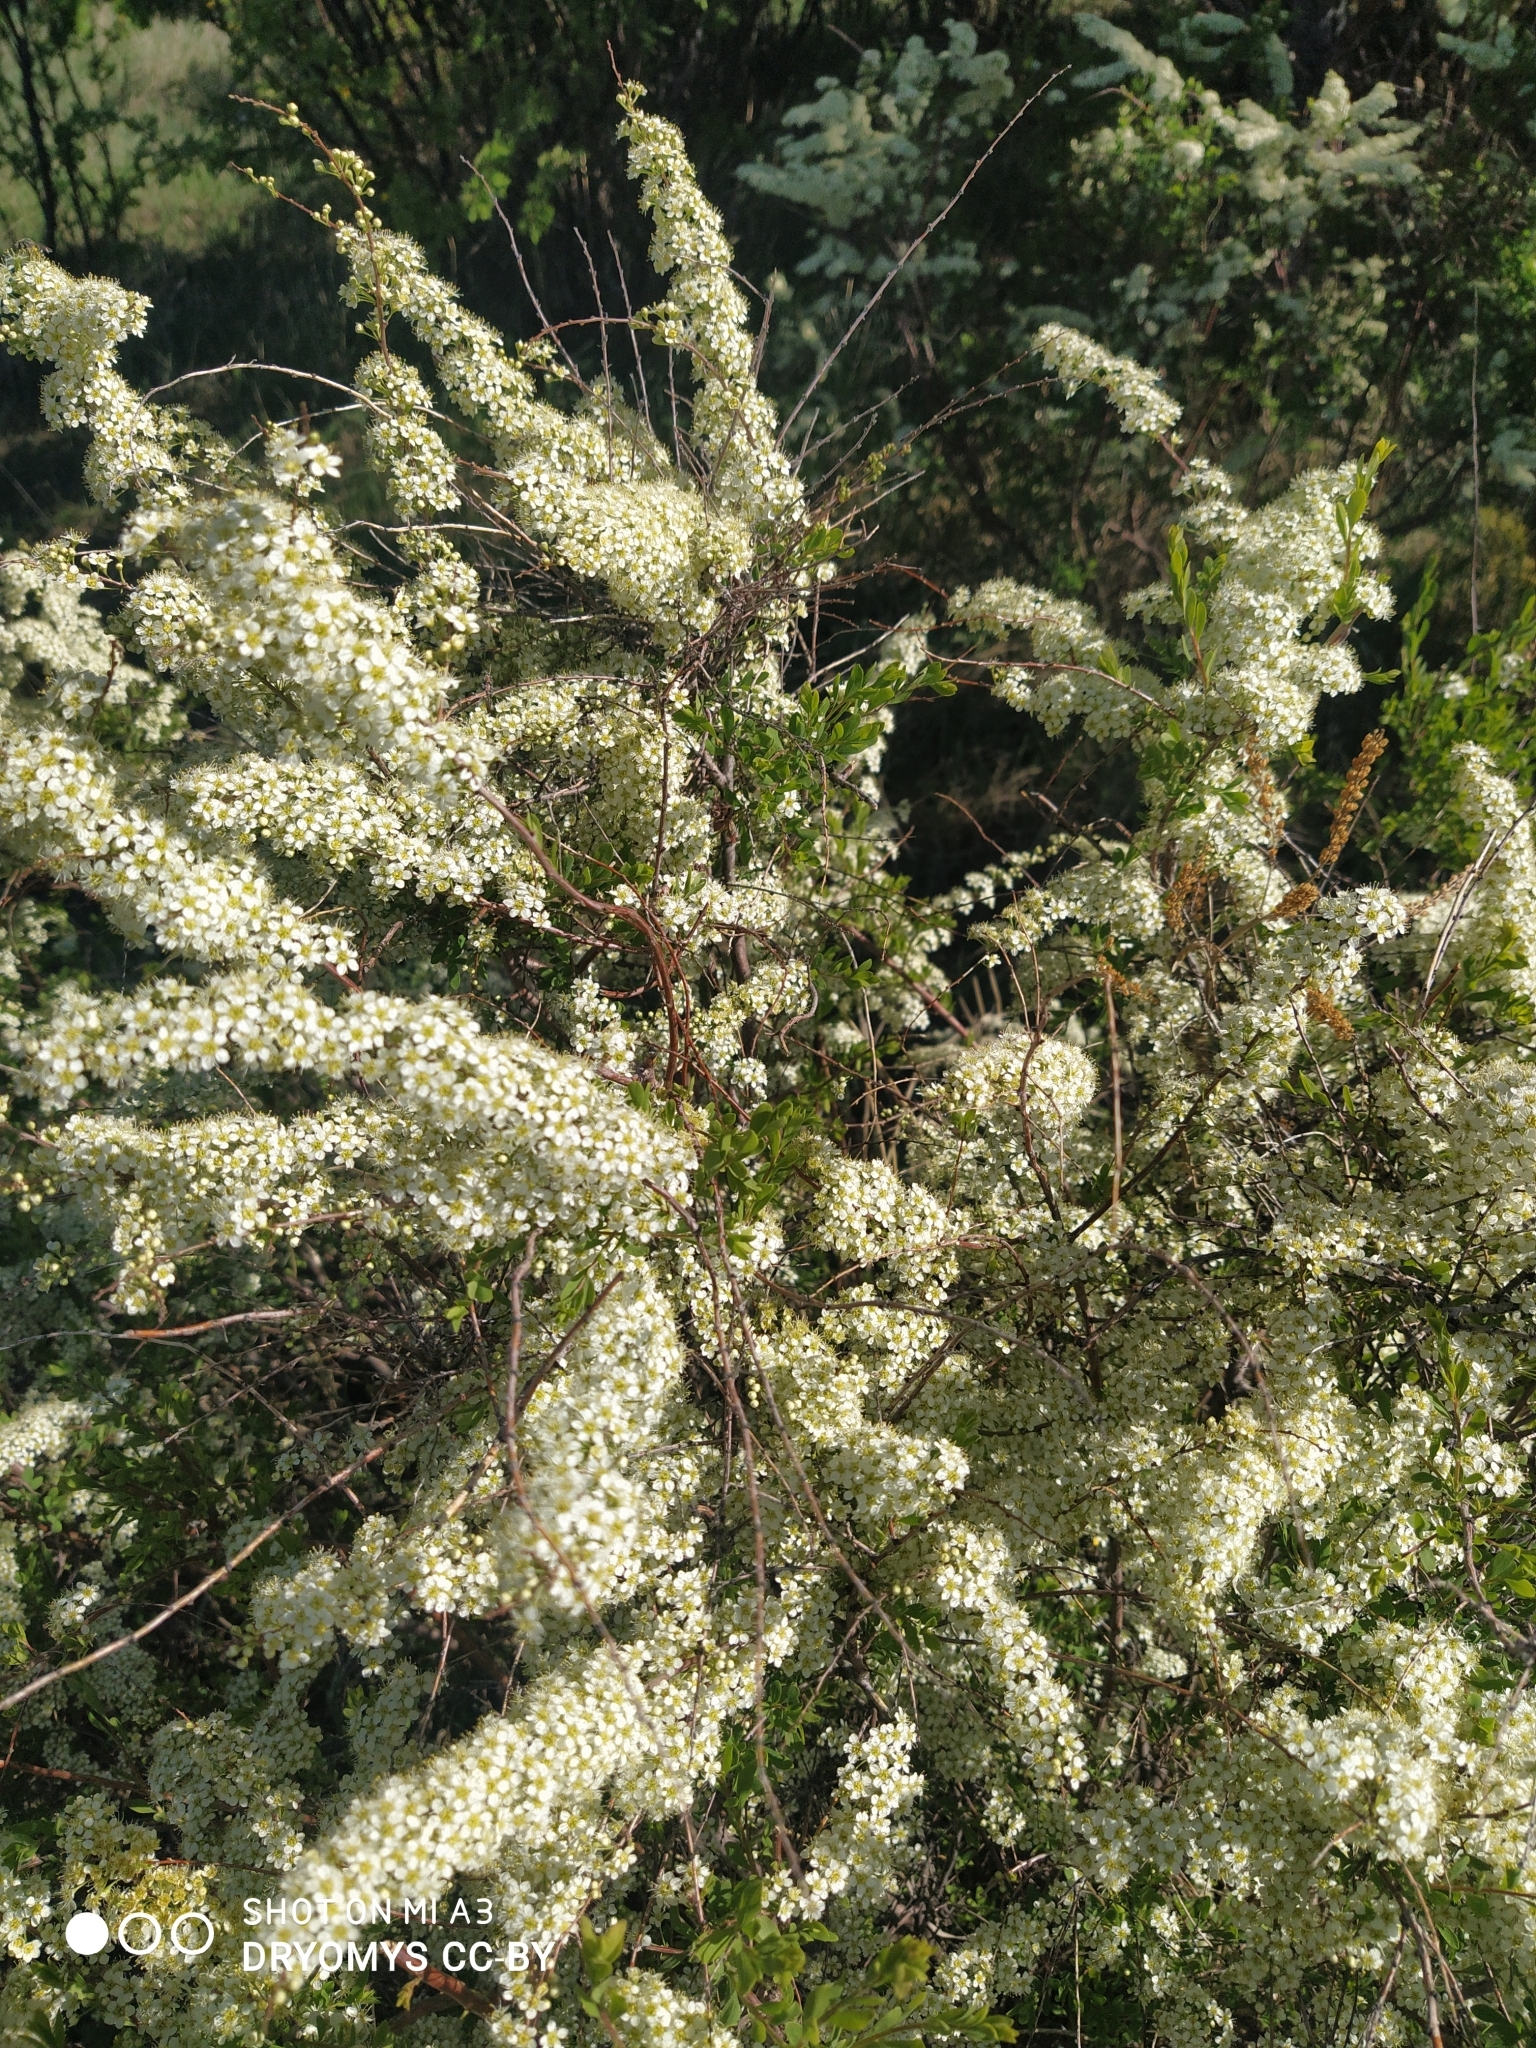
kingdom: Plantae
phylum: Tracheophyta
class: Magnoliopsida
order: Rosales
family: Rosaceae
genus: Spiraea
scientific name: Spiraea hypericifolia
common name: Iberian spirea
